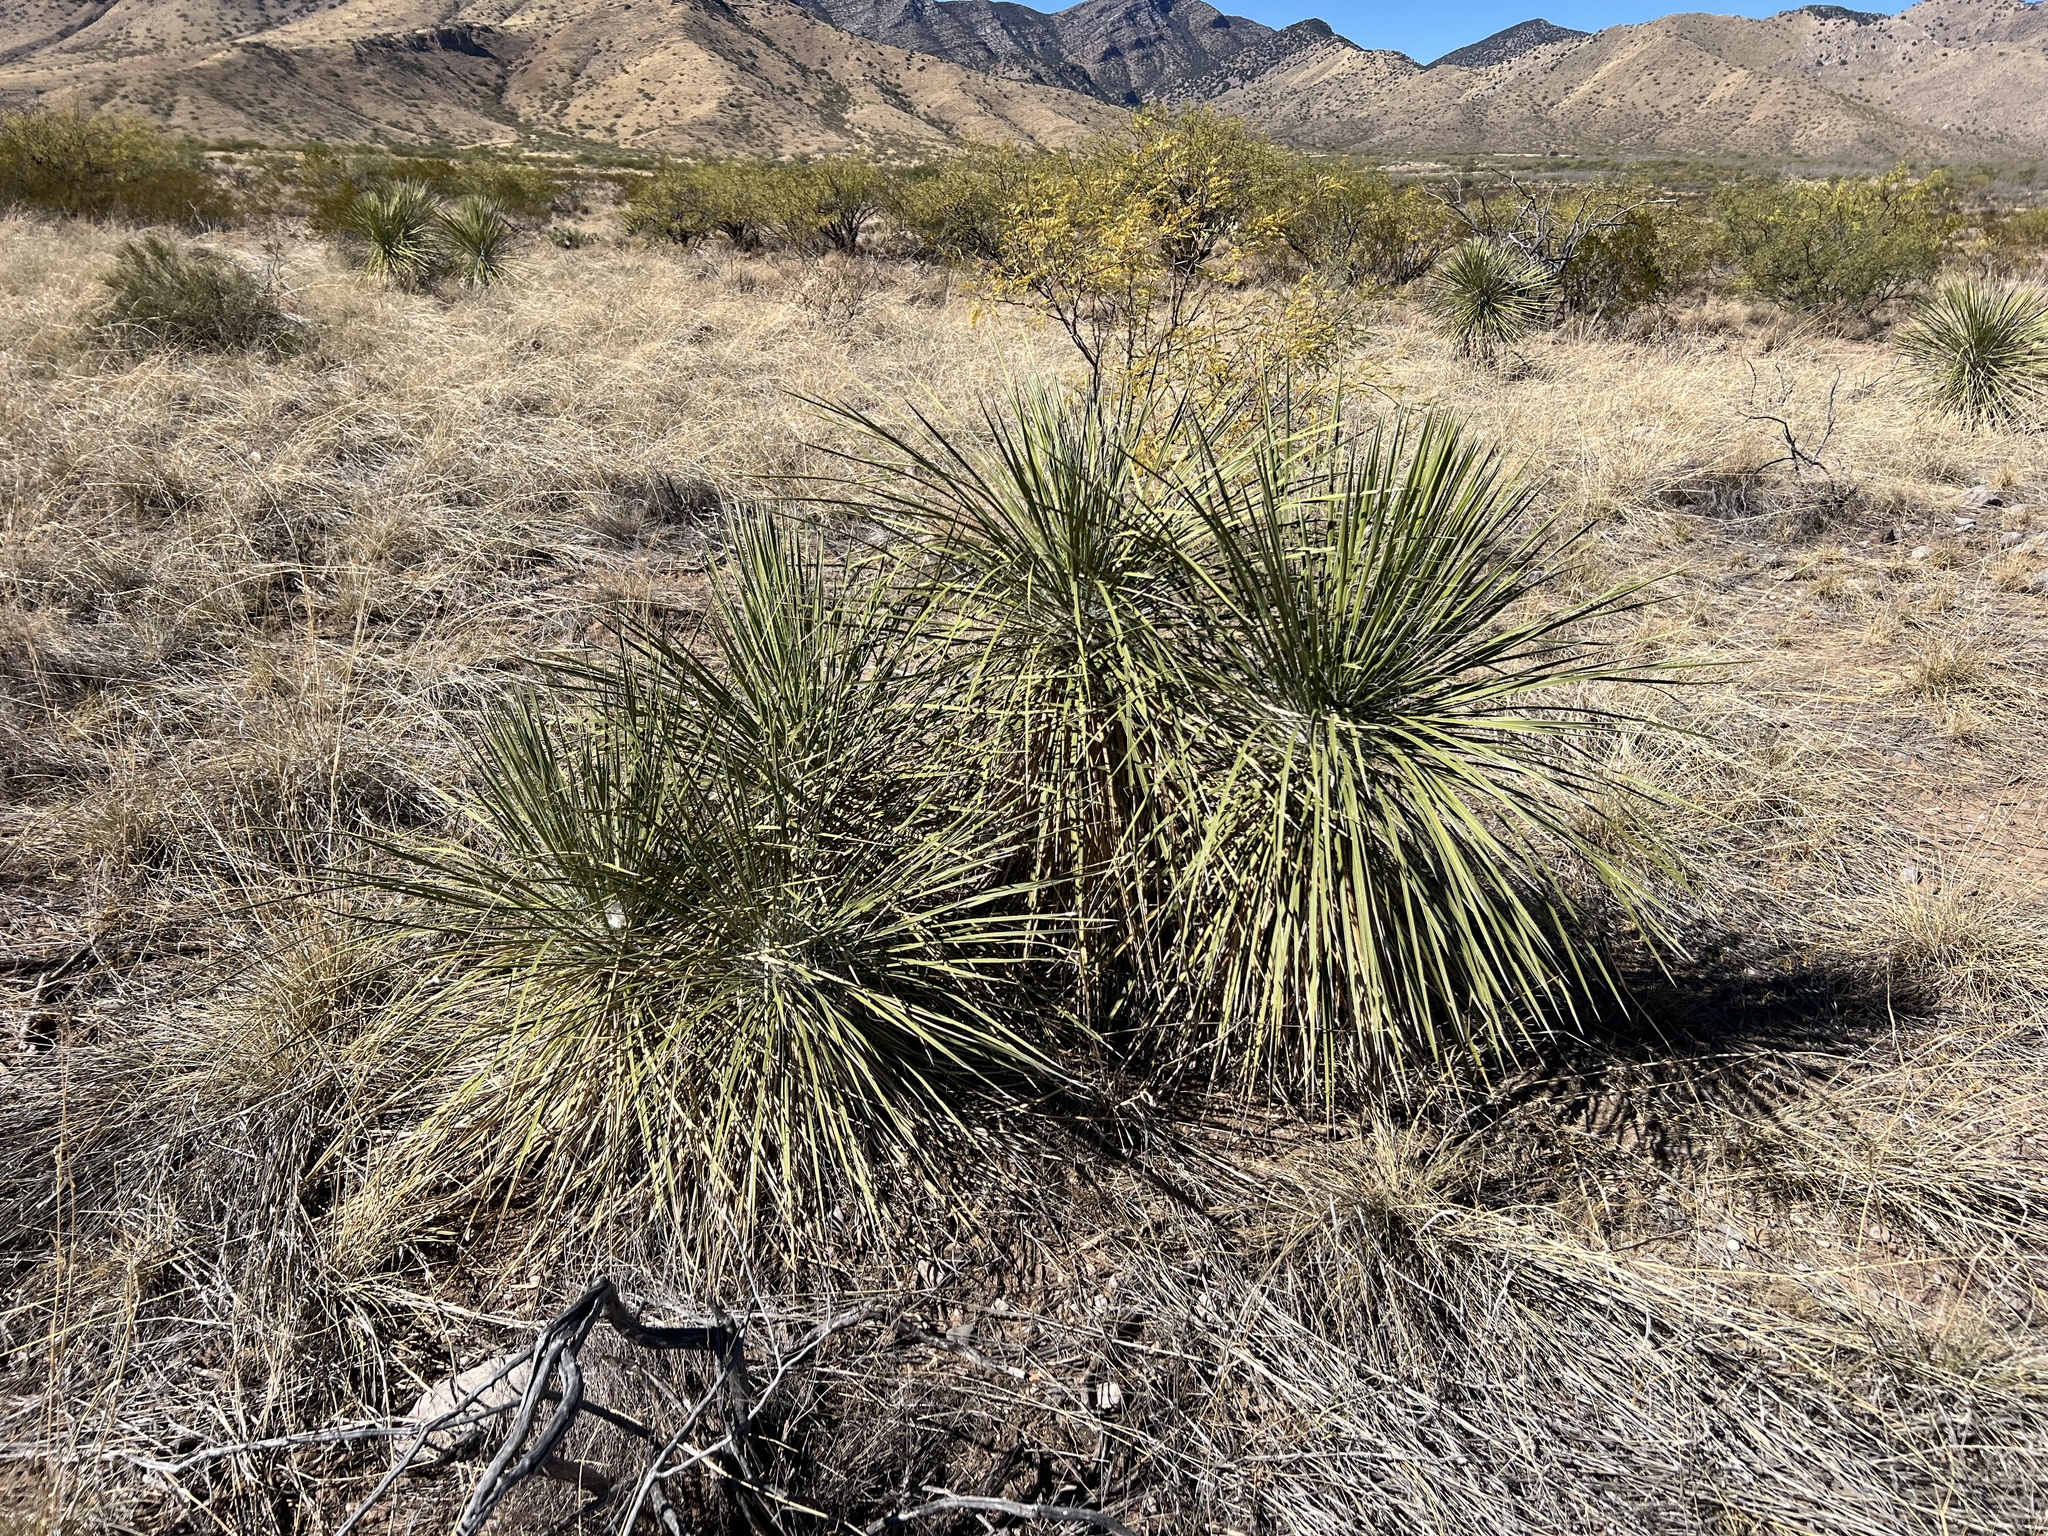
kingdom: Plantae
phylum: Tracheophyta
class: Liliopsida
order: Asparagales
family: Asparagaceae
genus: Yucca
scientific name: Yucca elata
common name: Palmella
